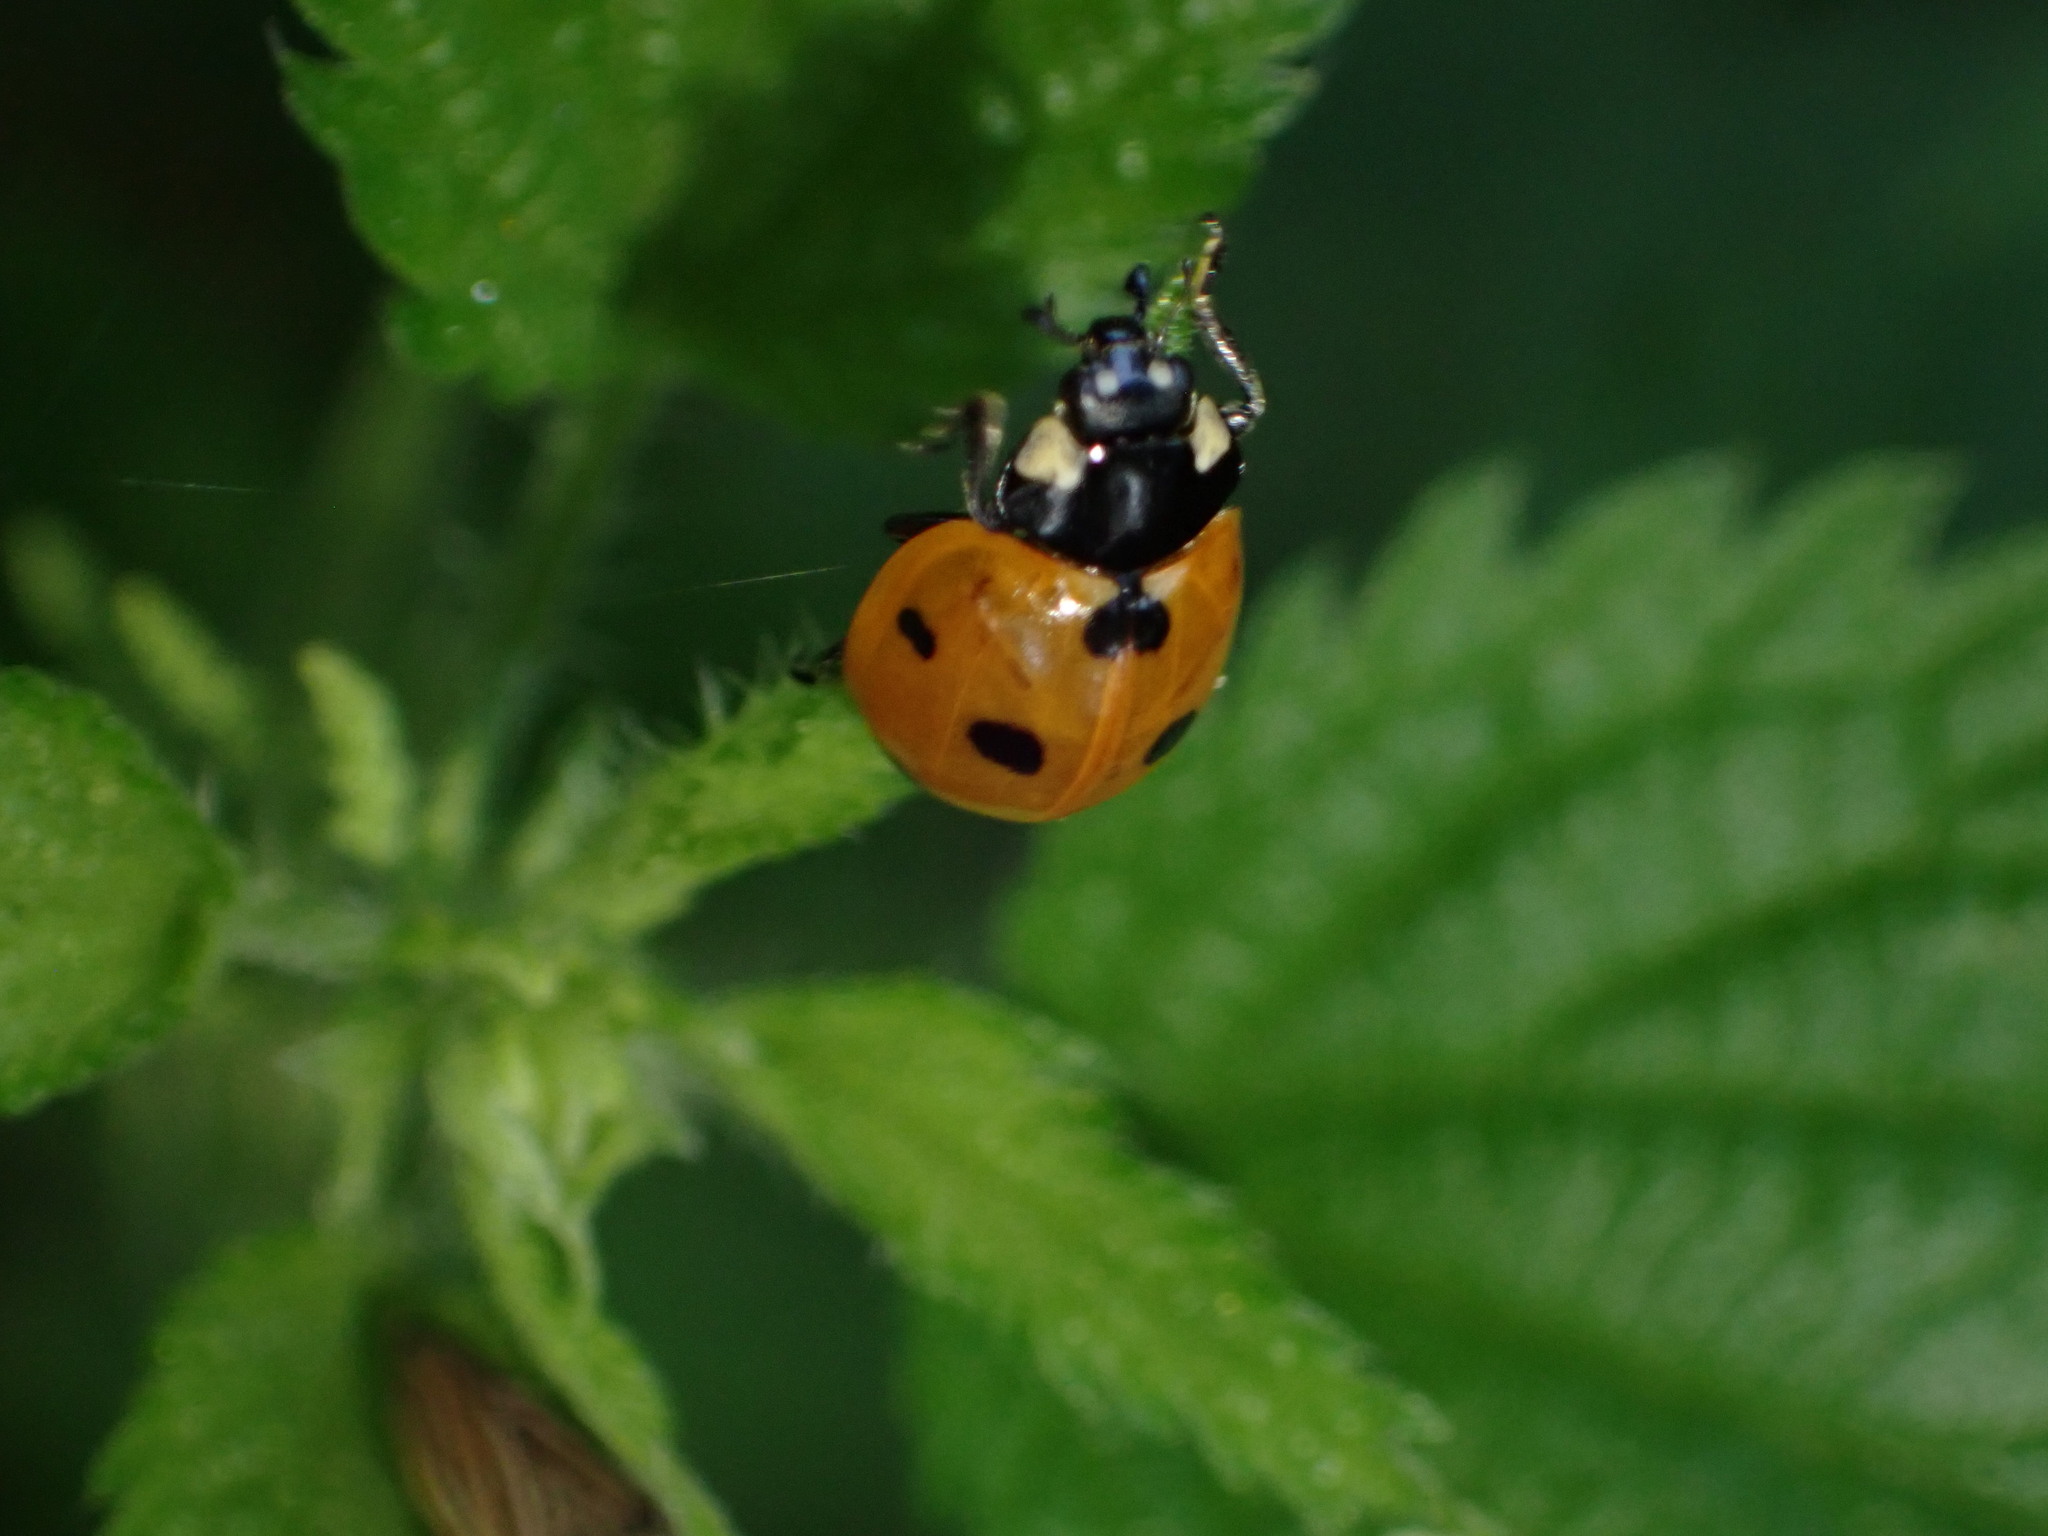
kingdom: Animalia
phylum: Arthropoda
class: Insecta
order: Coleoptera
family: Coccinellidae
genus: Coccinella
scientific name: Coccinella septempunctata
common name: Sevenspotted lady beetle
